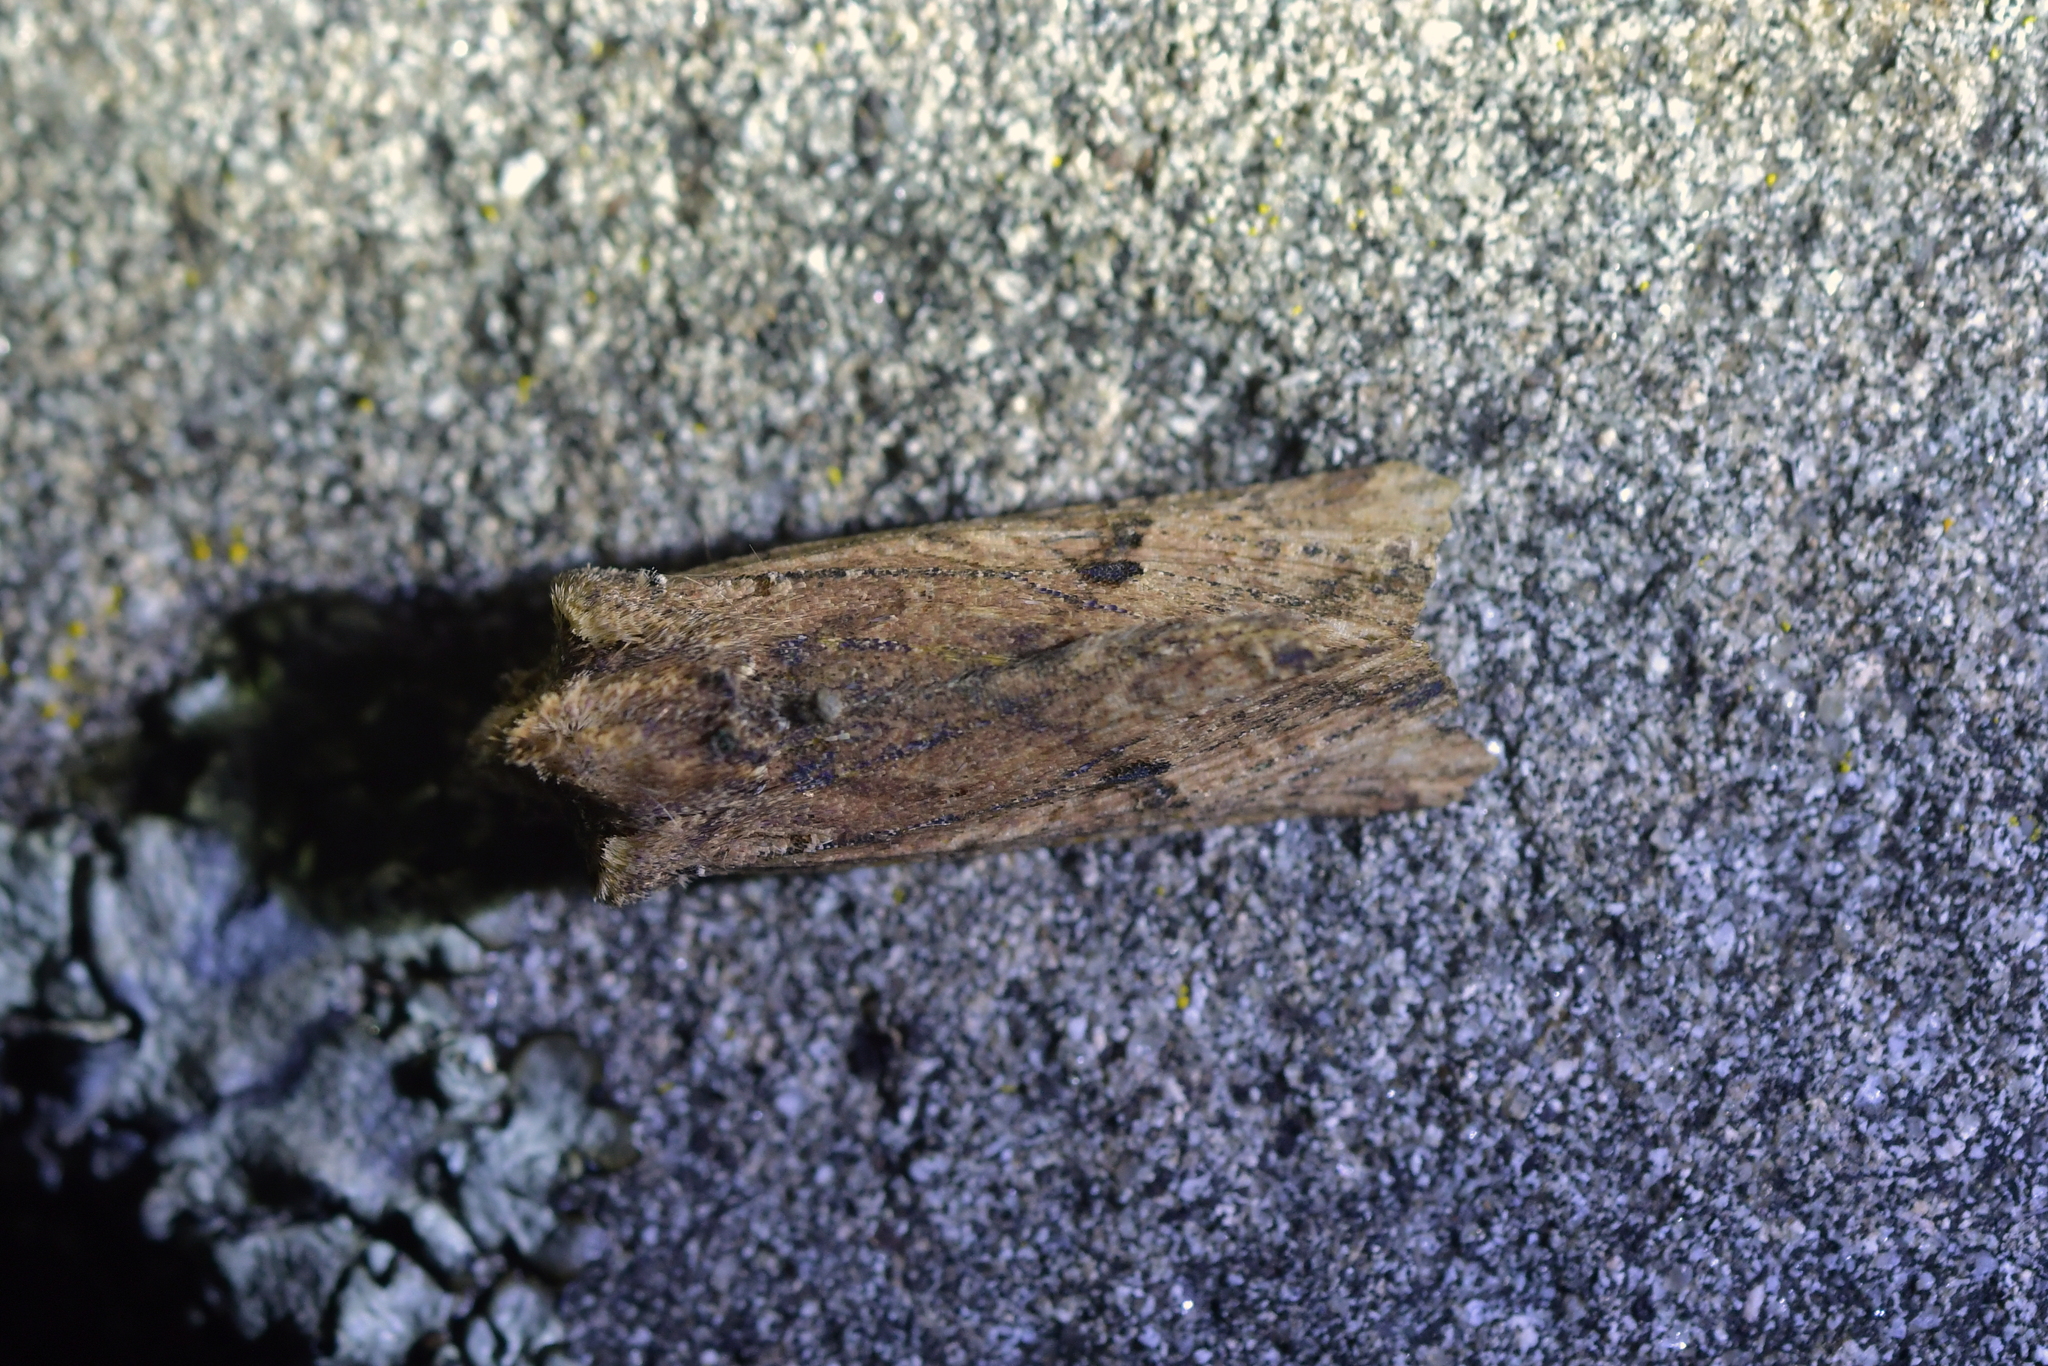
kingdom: Animalia
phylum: Arthropoda
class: Insecta
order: Lepidoptera
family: Noctuidae
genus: Meterana
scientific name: Meterana coeleno
